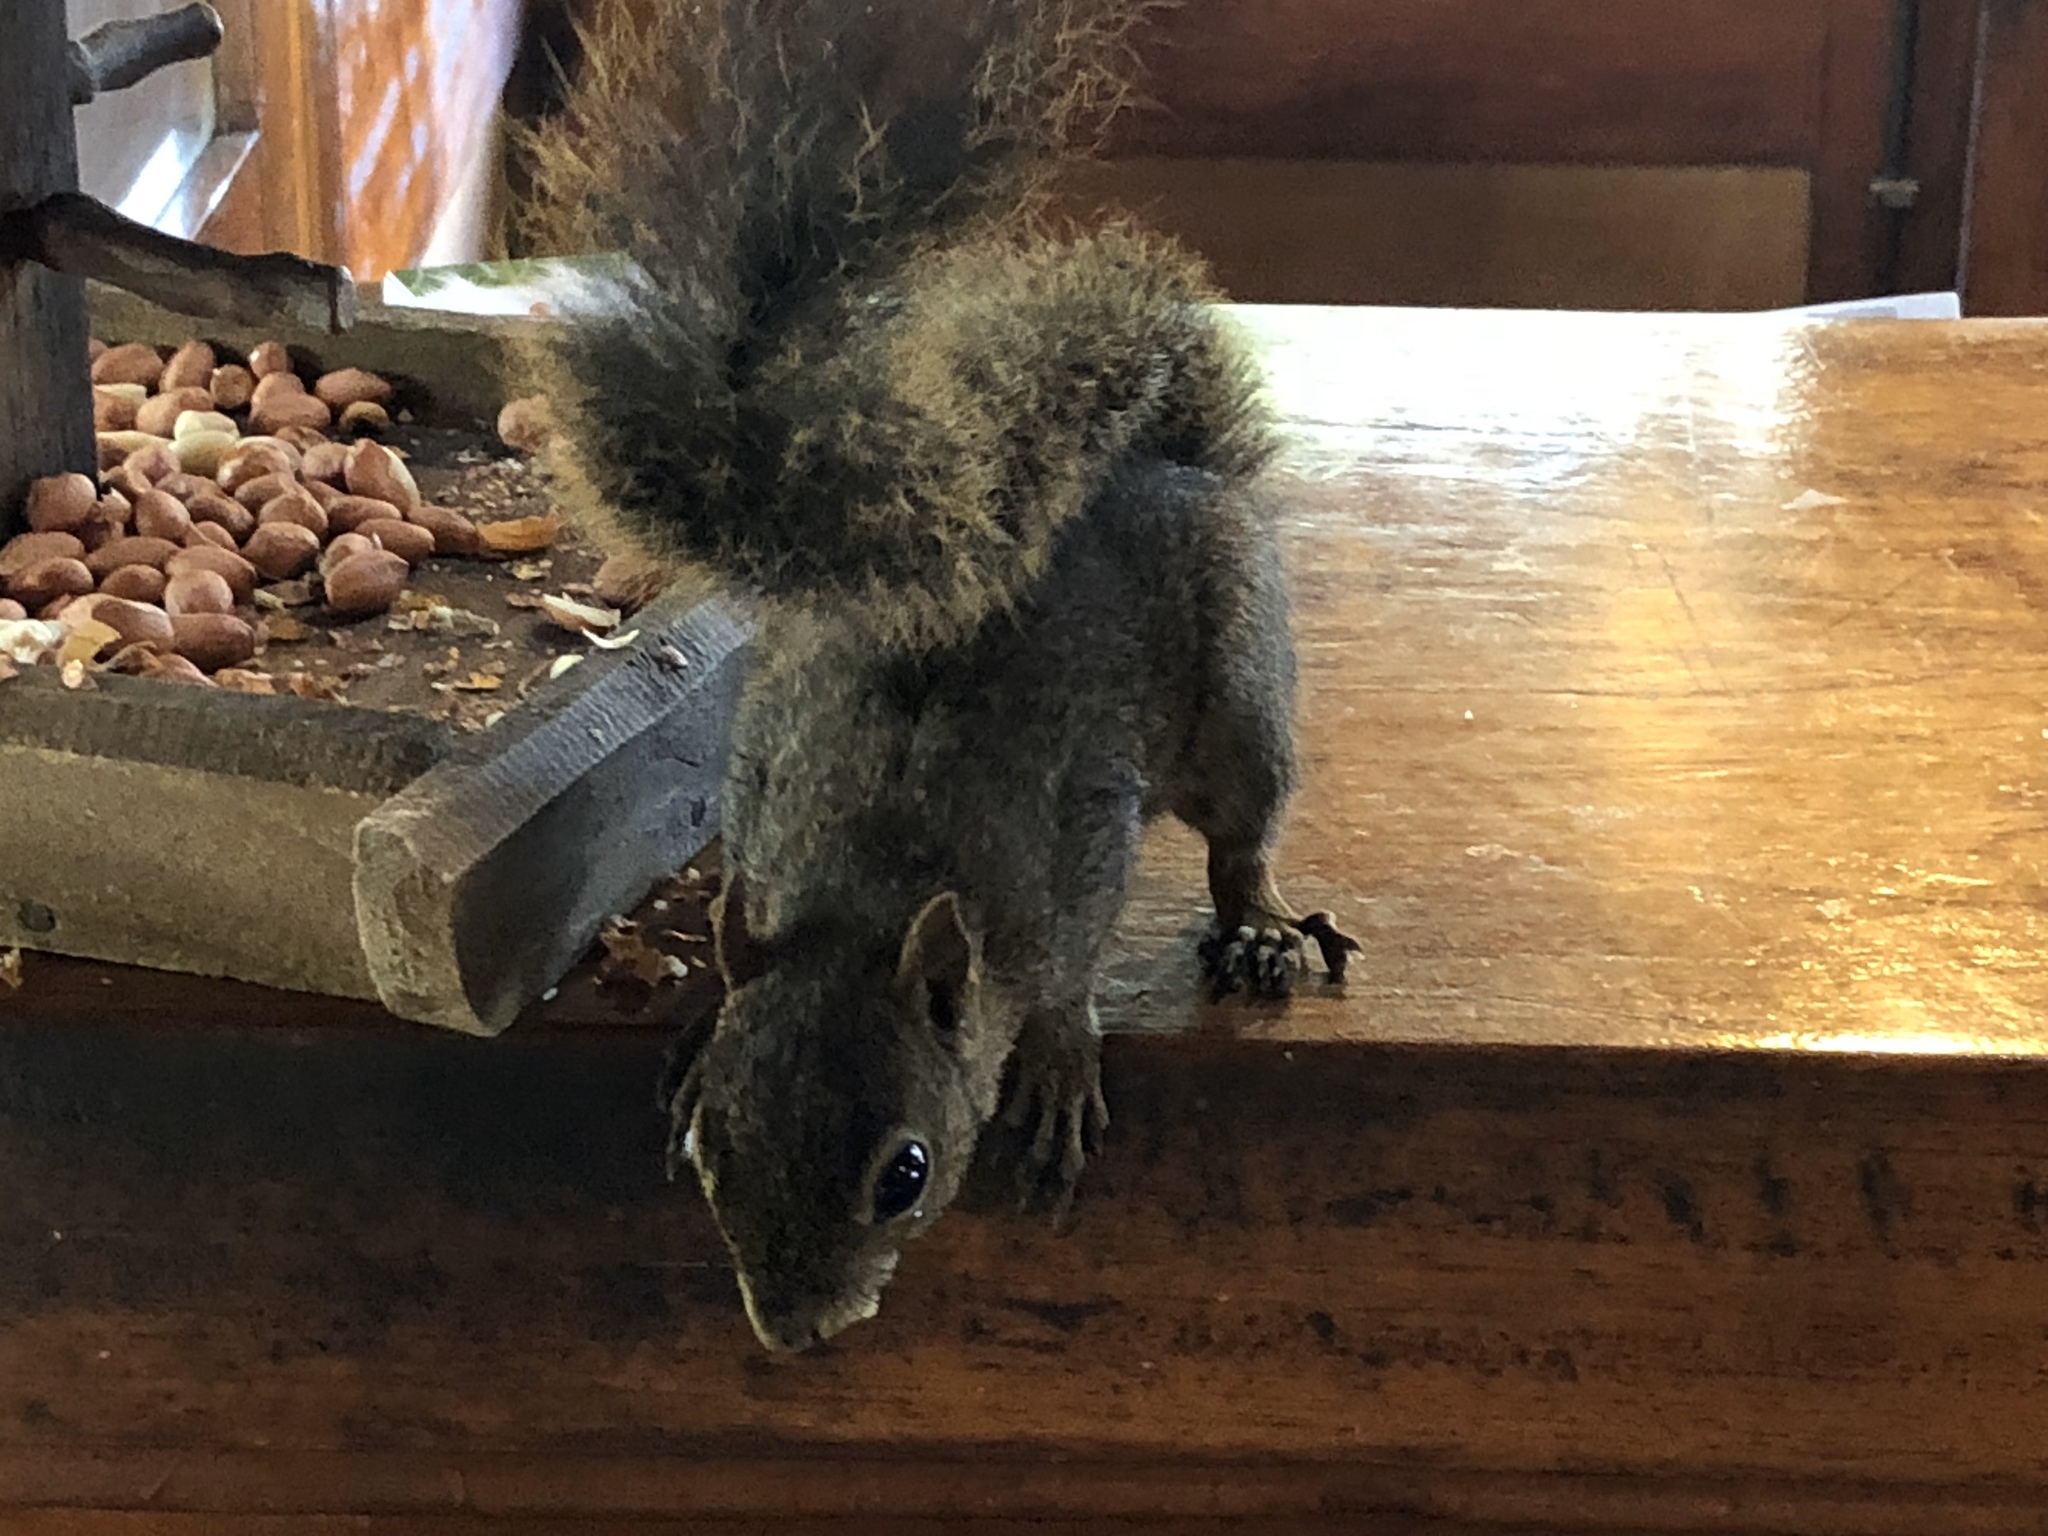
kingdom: Animalia
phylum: Chordata
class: Mammalia
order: Rodentia
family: Sciuridae
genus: Sciurus
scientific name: Sciurus aestuans
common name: Guianan squirrel
